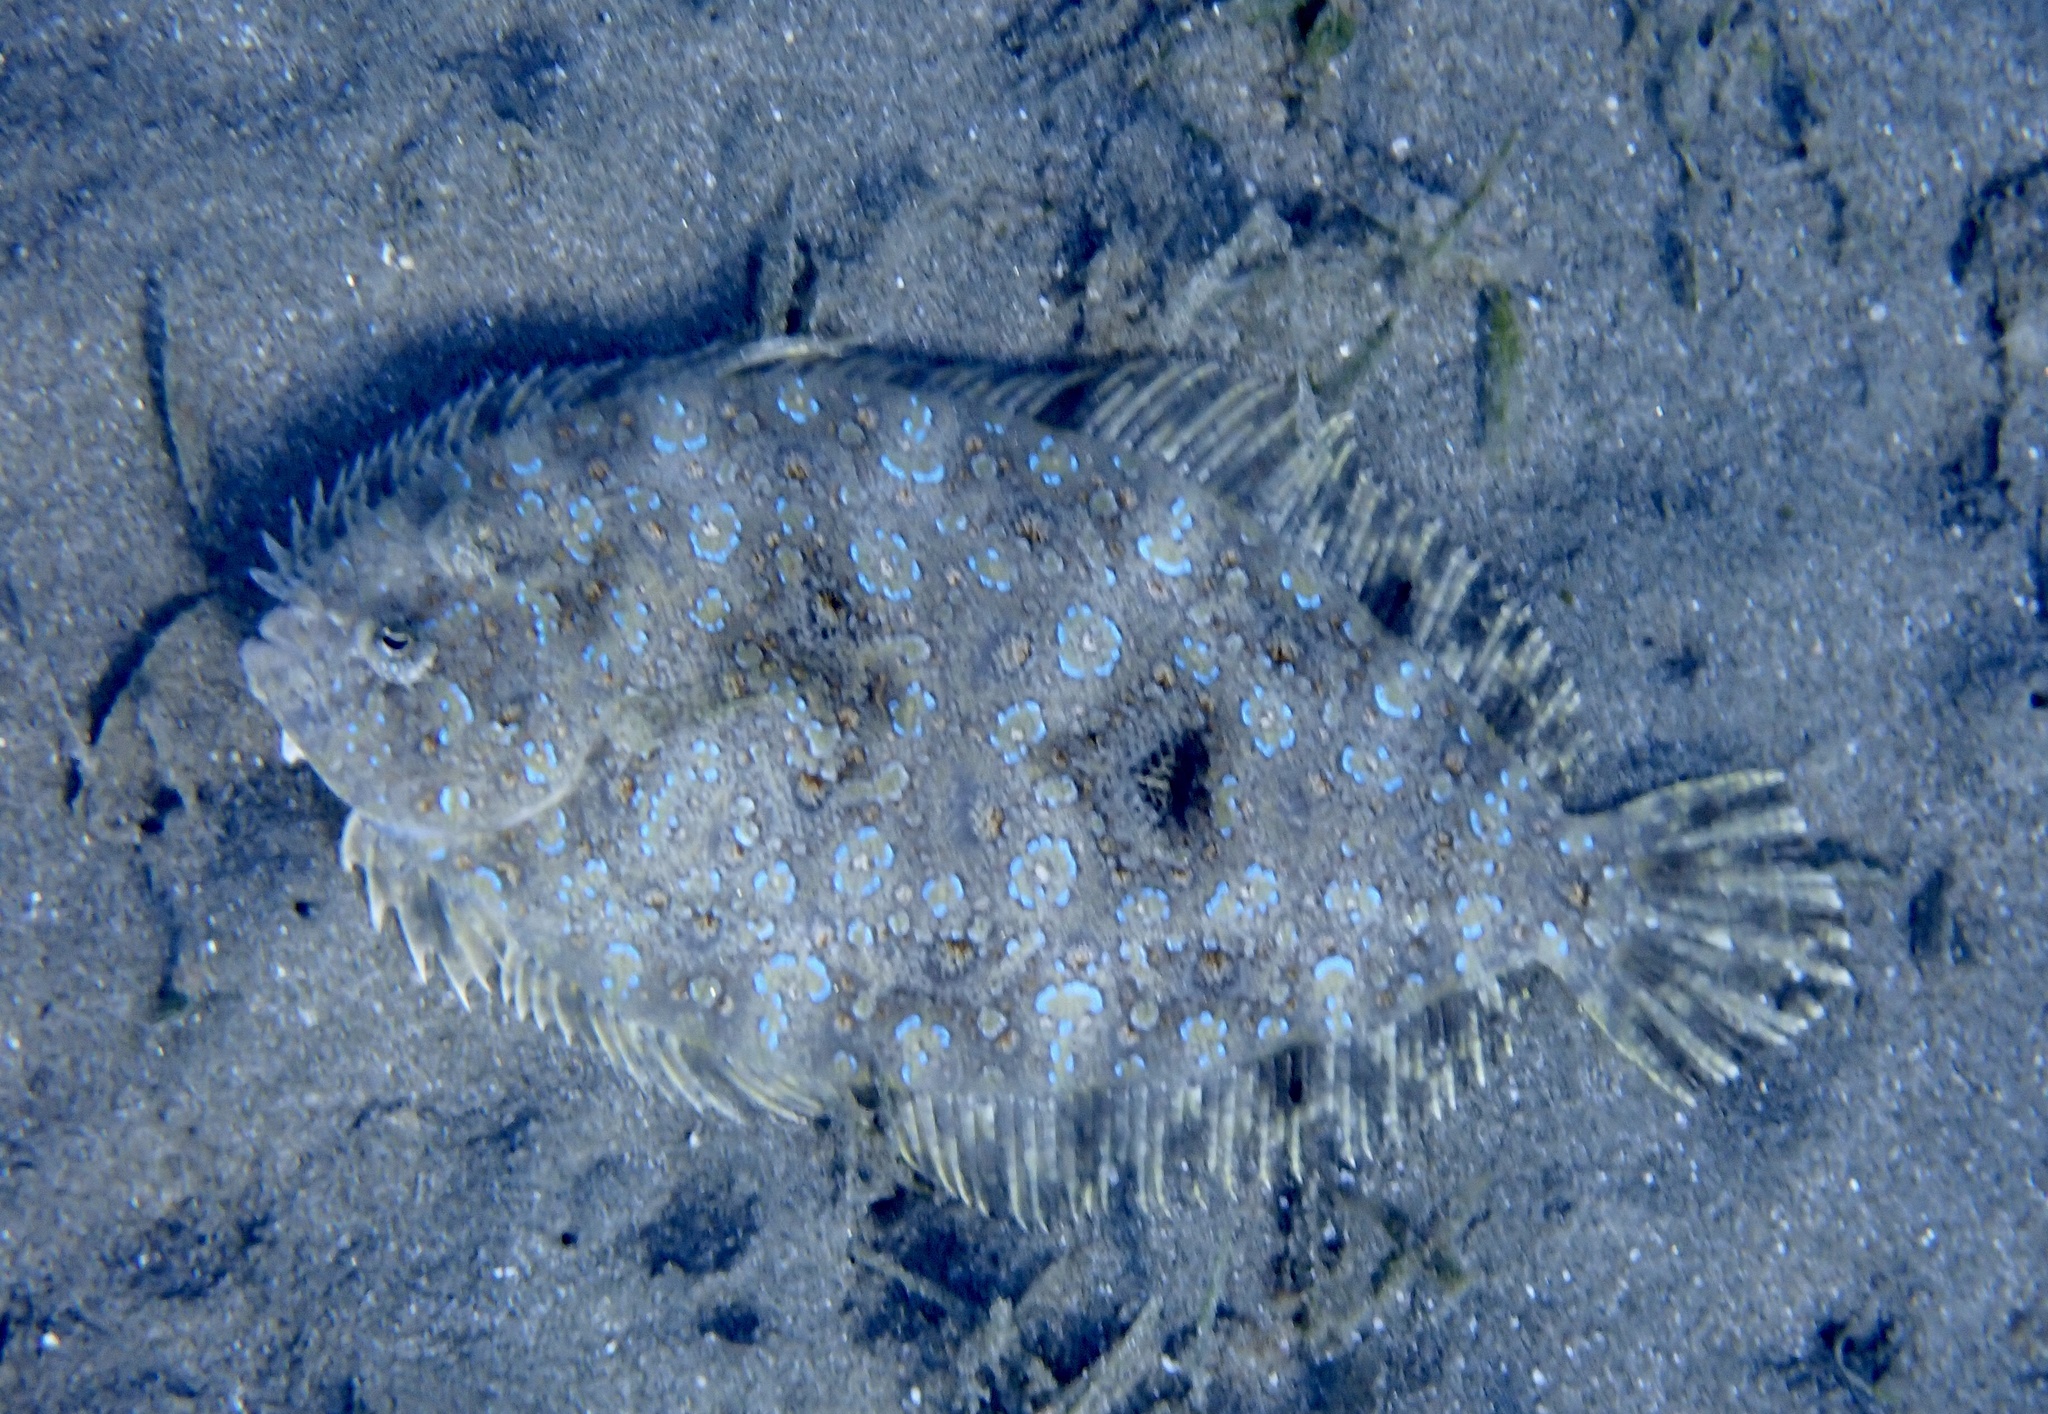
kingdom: Animalia
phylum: Chordata
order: Pleuronectiformes
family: Bothidae
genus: Bothus
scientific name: Bothus pantherinus
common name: Leopard flounder
